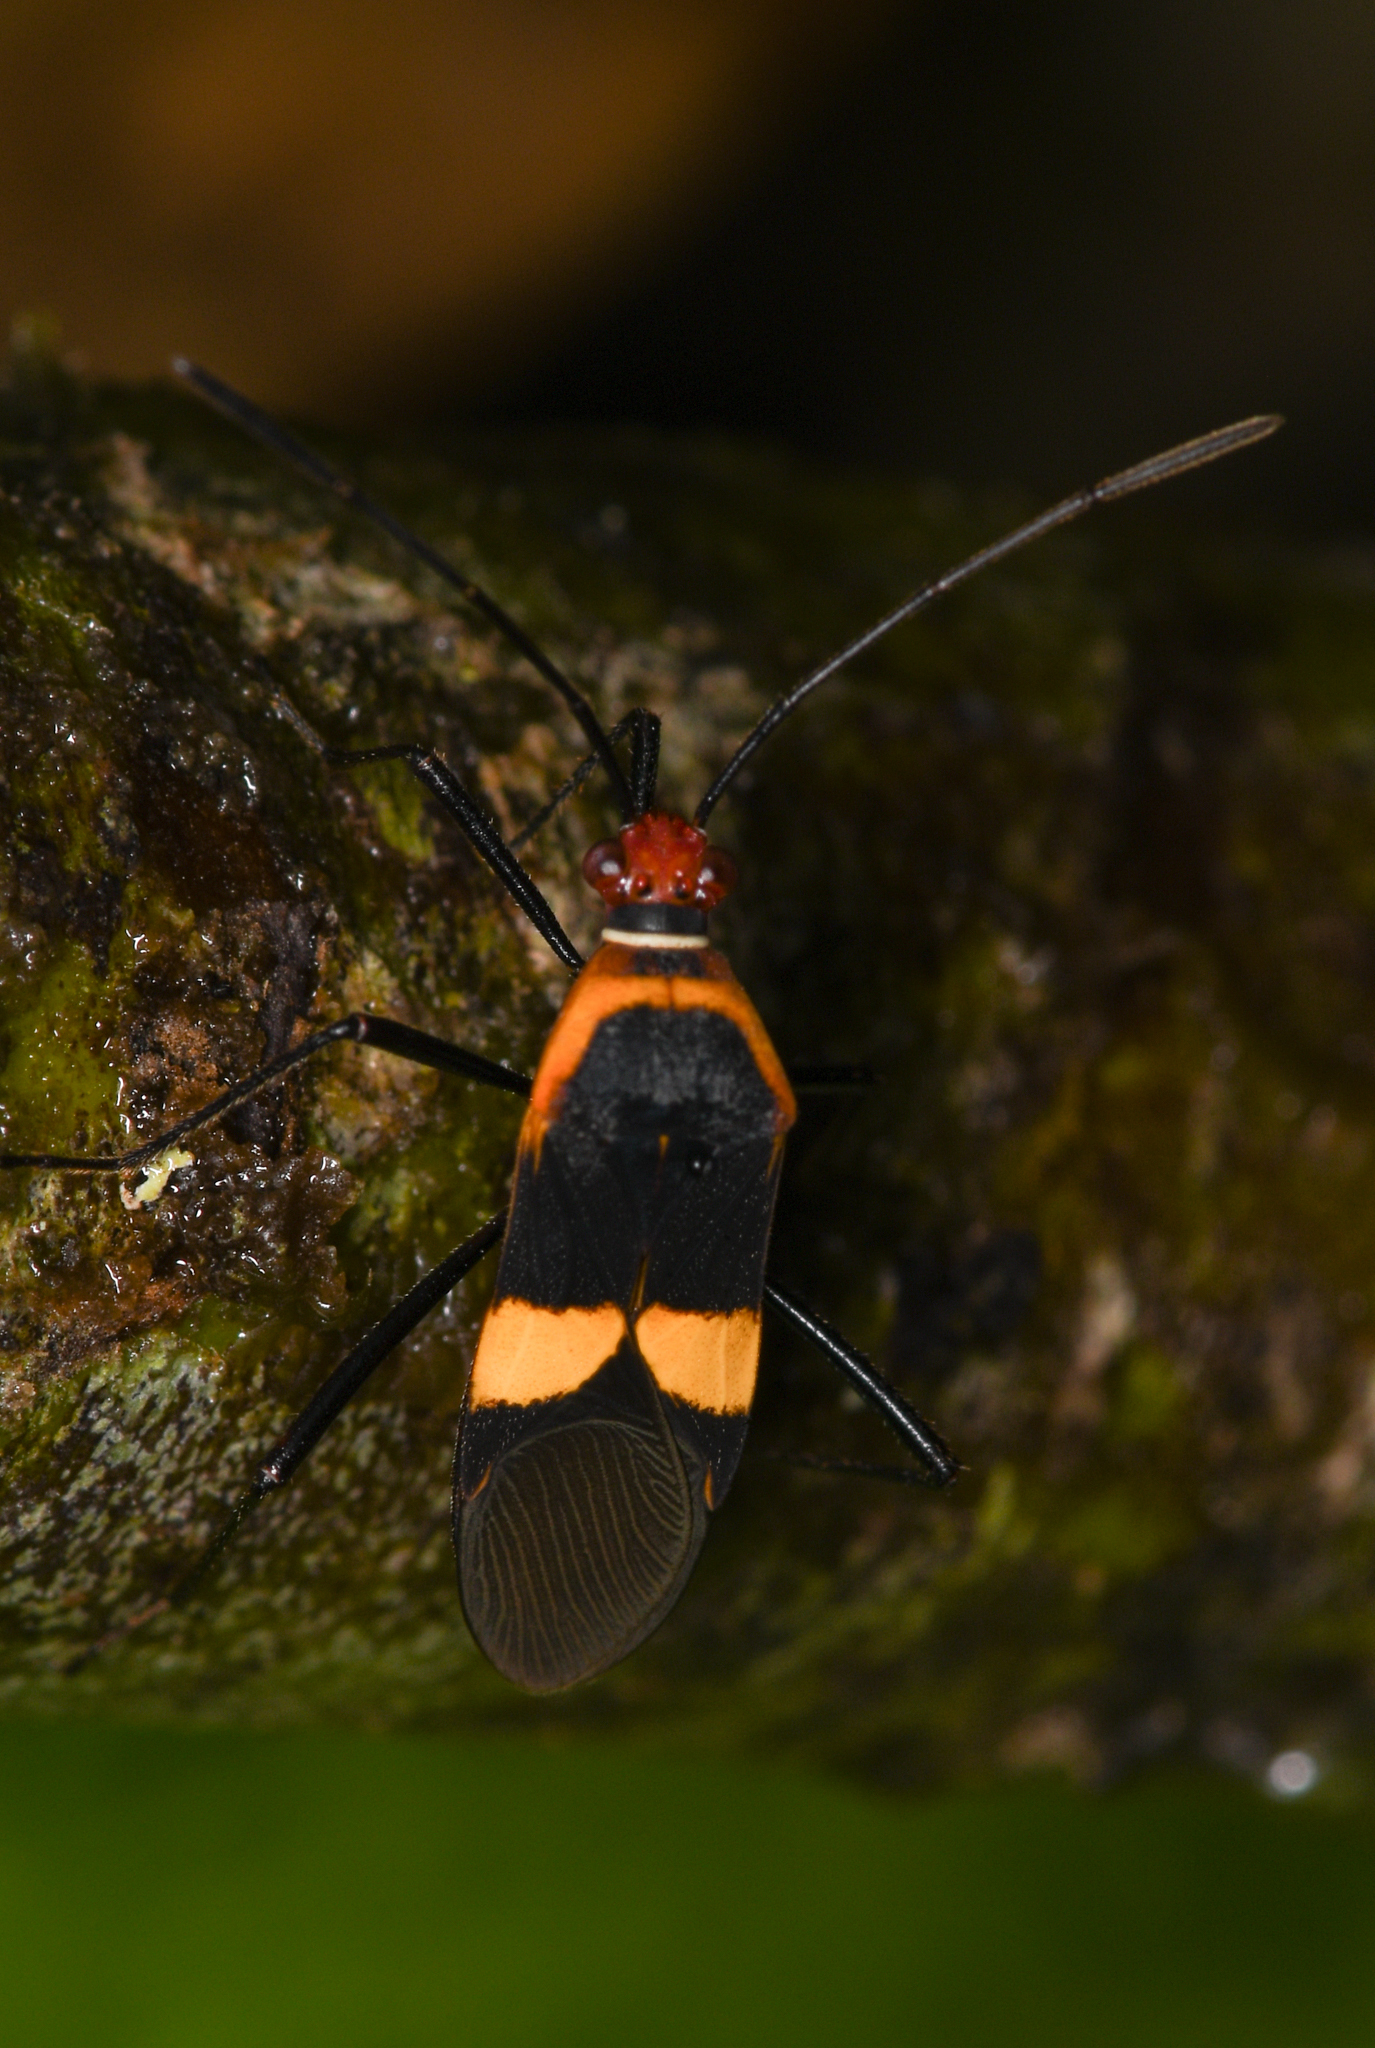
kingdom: Animalia
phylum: Arthropoda
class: Insecta
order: Hemiptera
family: Coreidae
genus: Hypselonotus
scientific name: Hypselonotus interruptus
